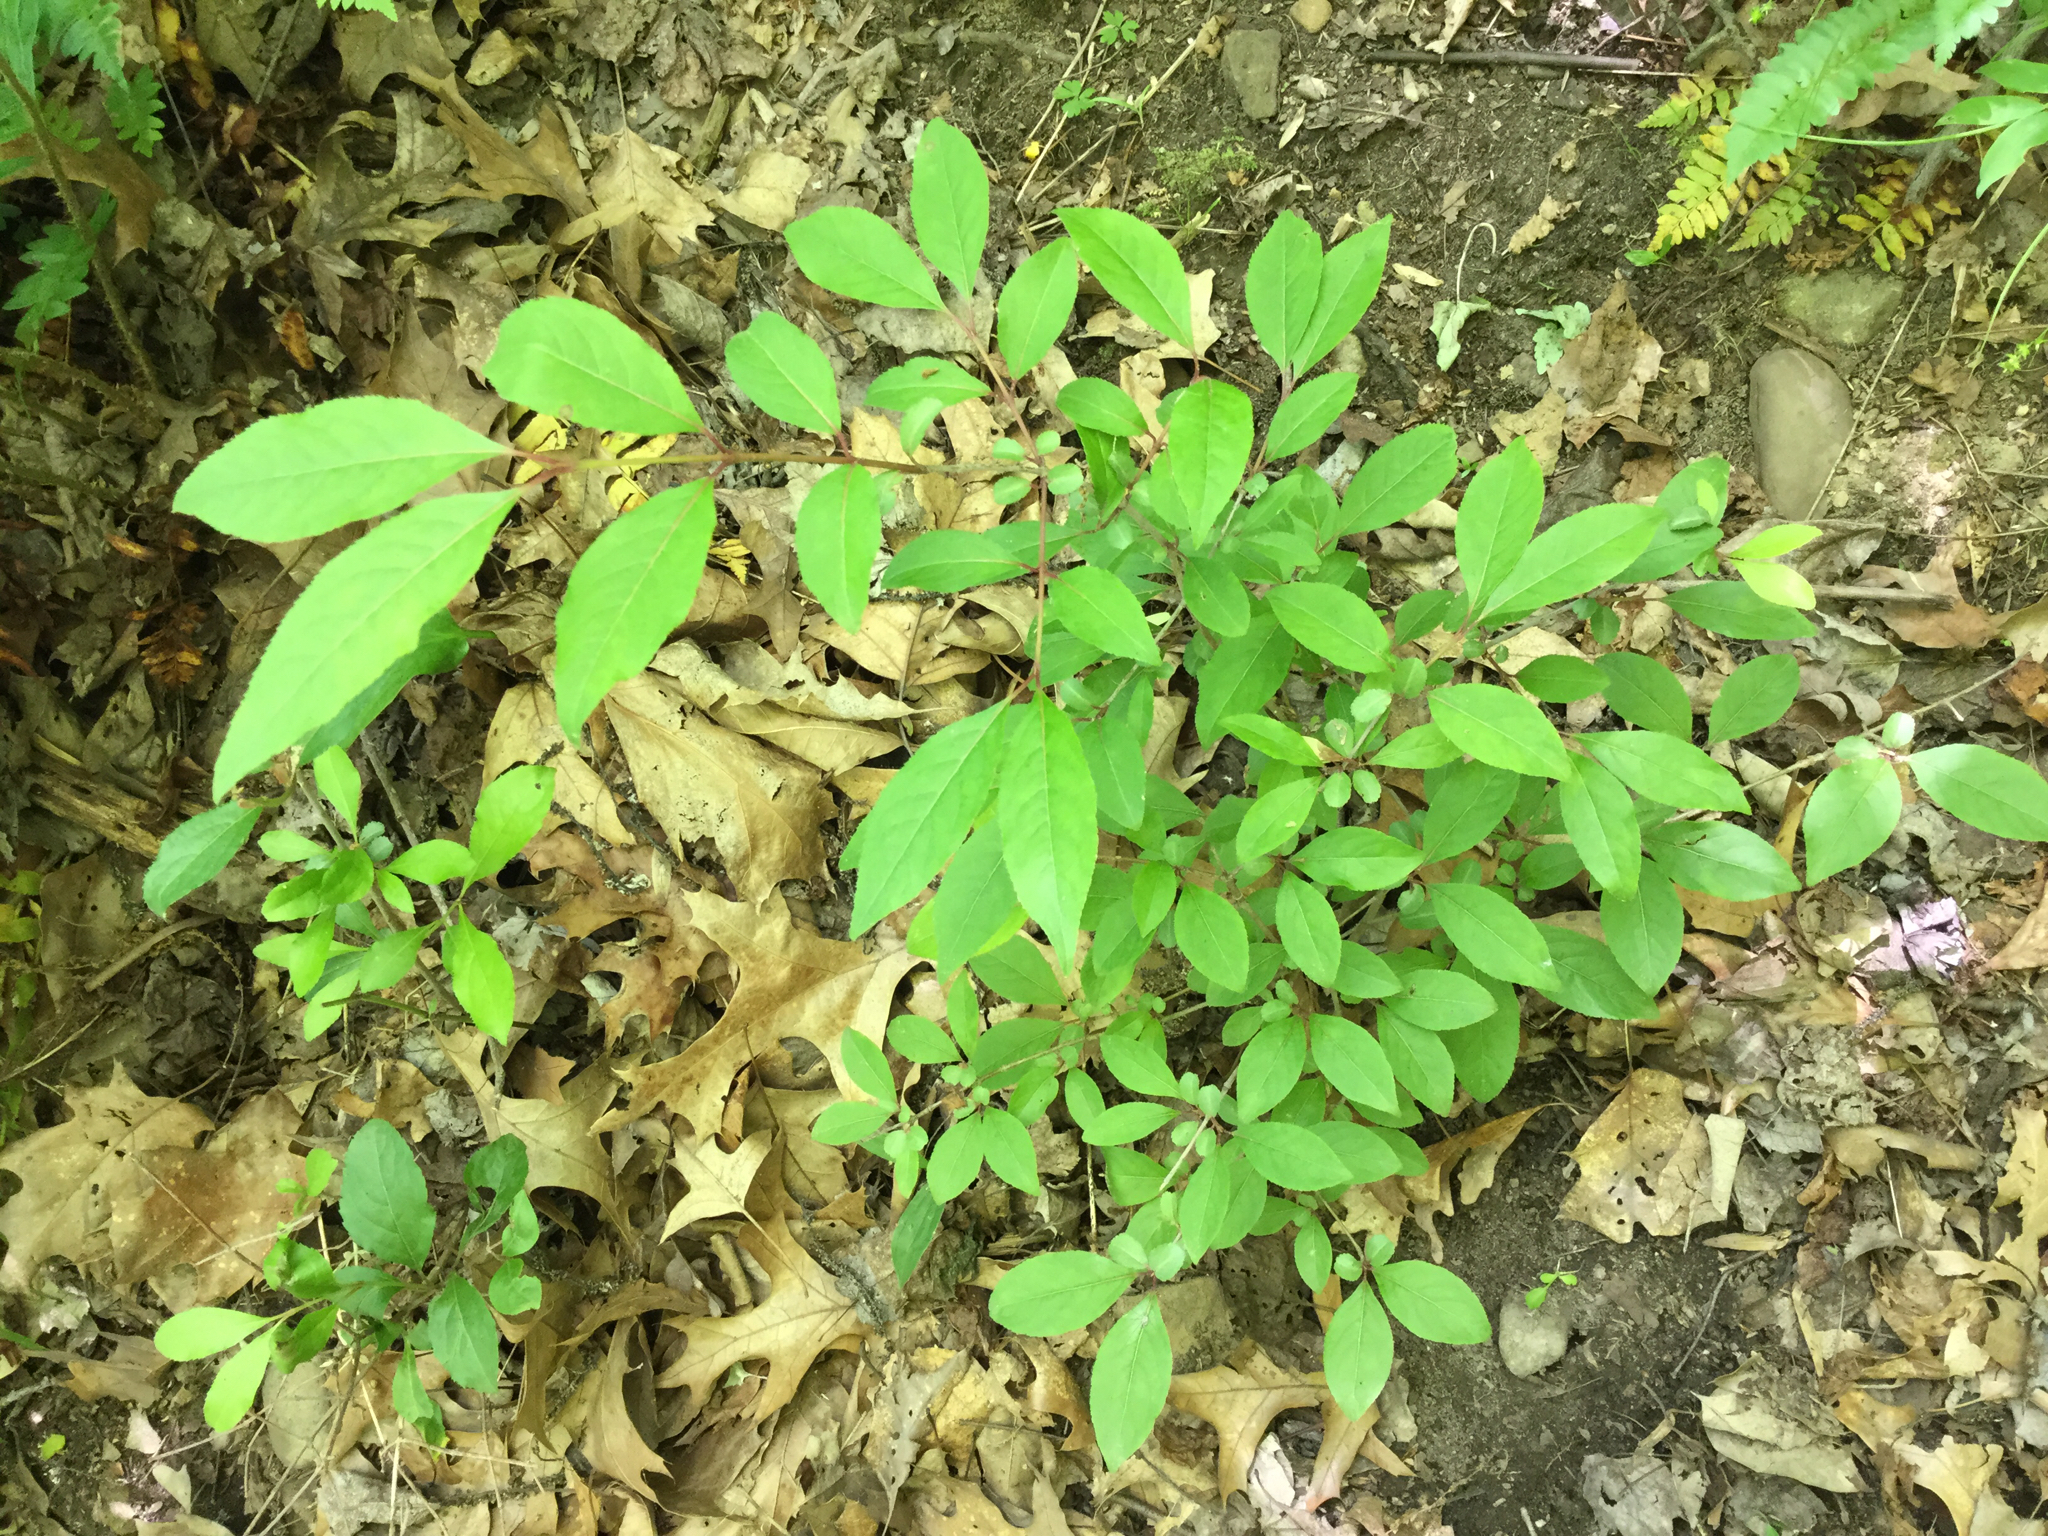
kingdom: Plantae
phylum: Tracheophyta
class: Magnoliopsida
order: Dipsacales
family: Viburnaceae
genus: Viburnum
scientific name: Viburnum prunifolium
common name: Black haw
